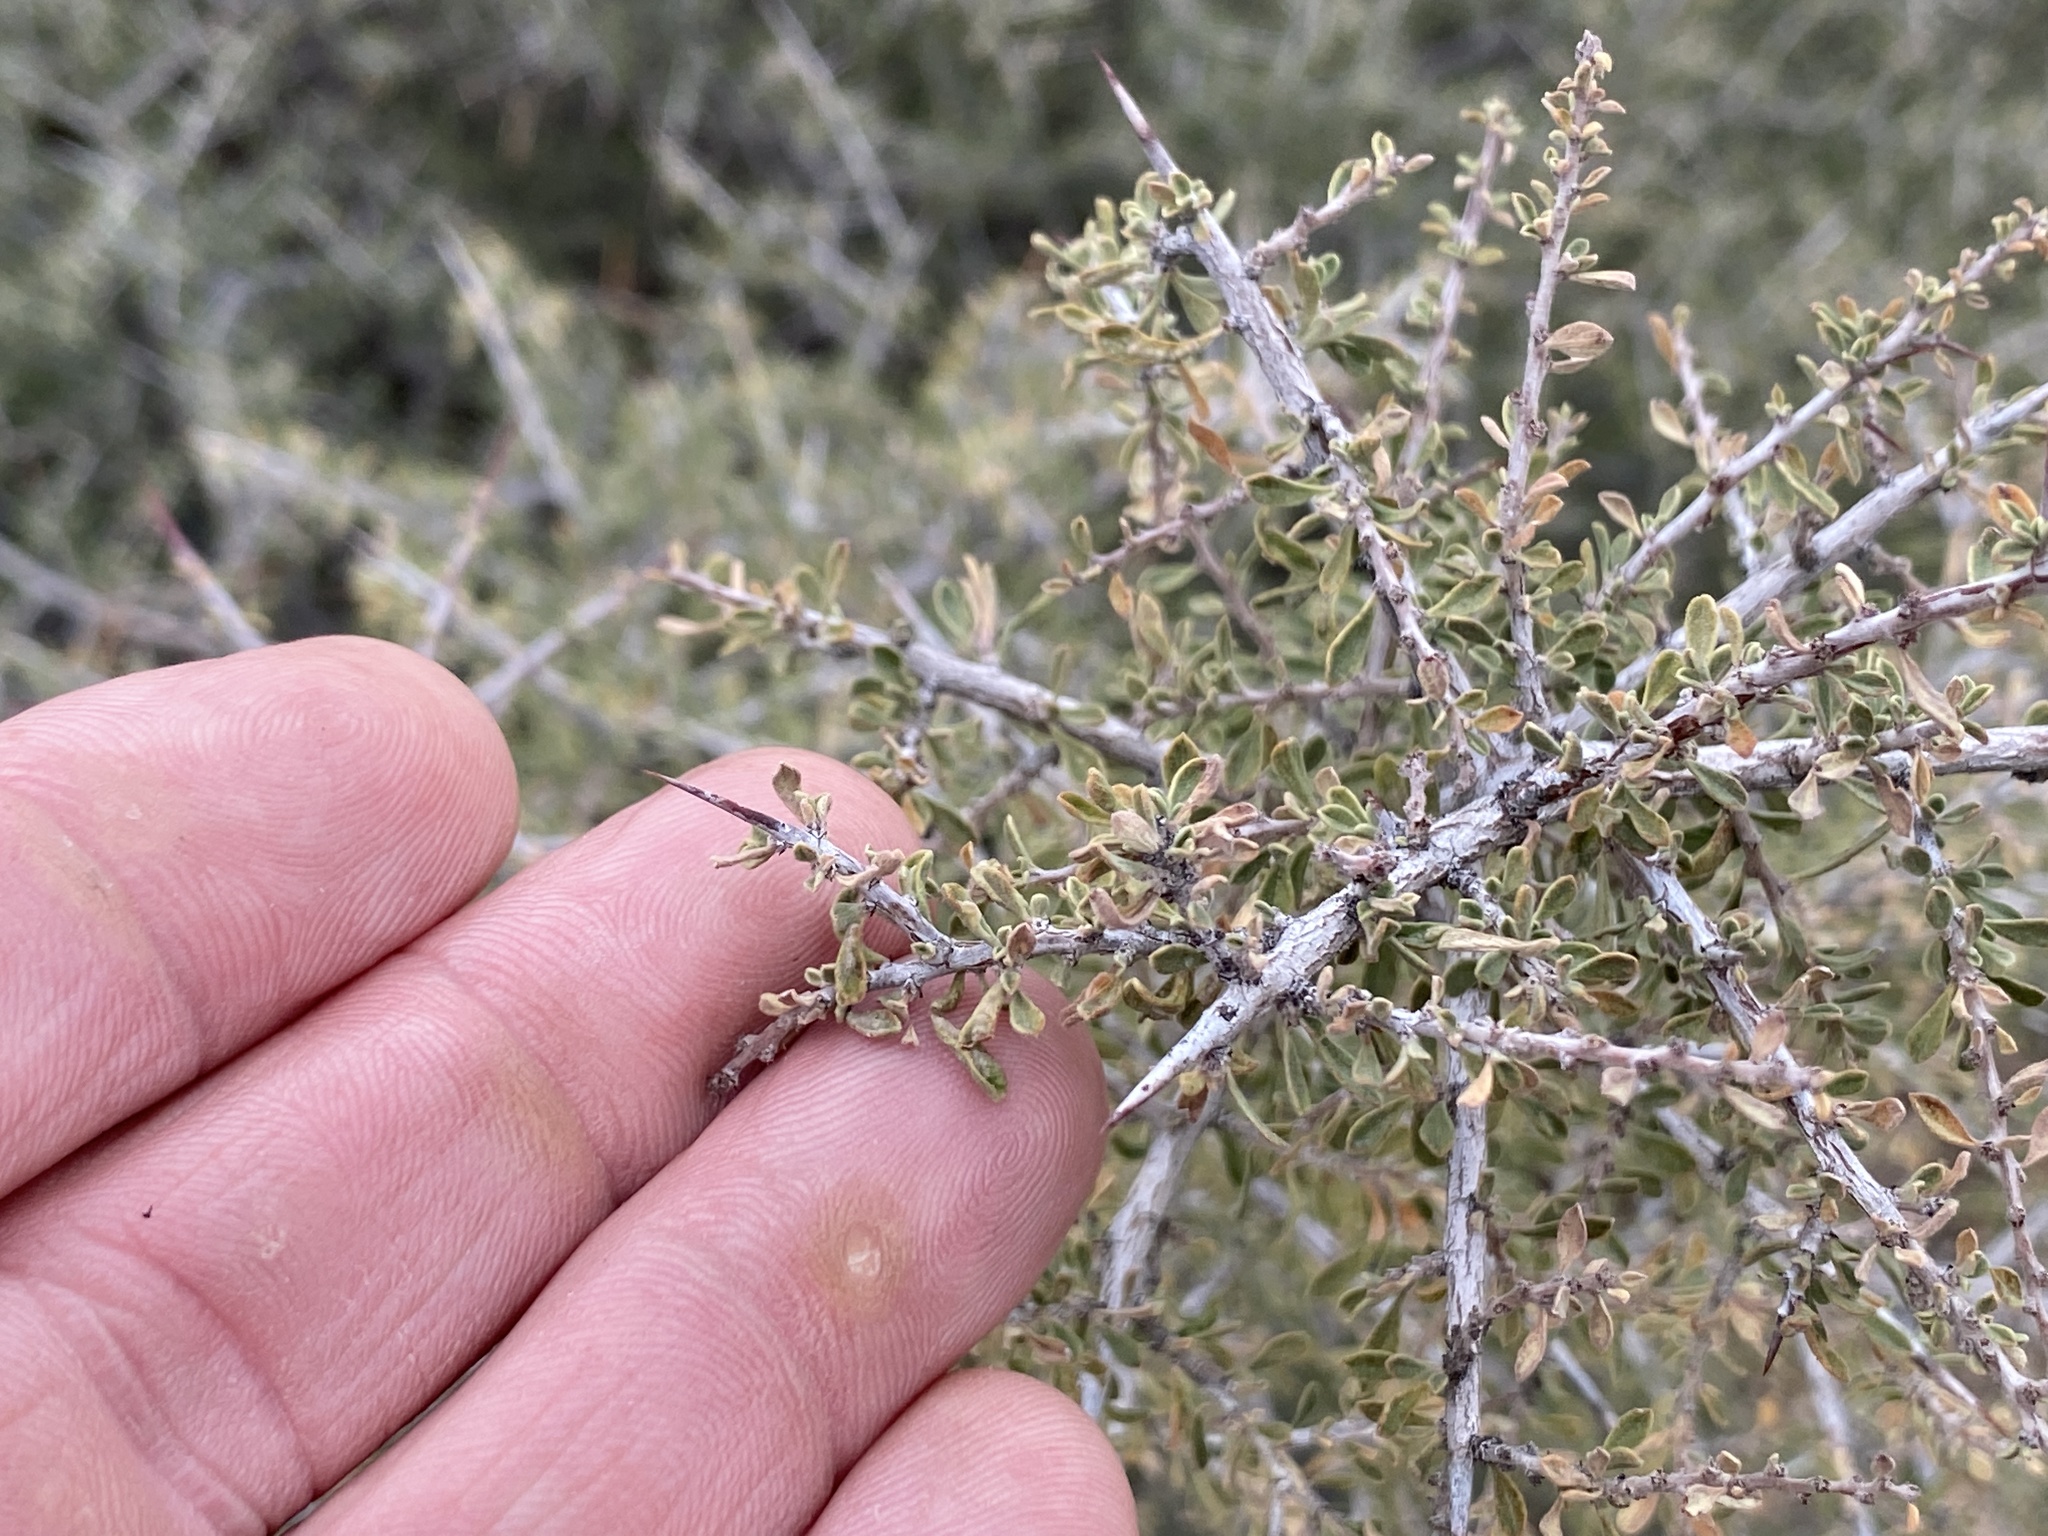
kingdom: Plantae
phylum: Tracheophyta
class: Magnoliopsida
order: Rosales
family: Rhamnaceae
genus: Condalia
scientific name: Condalia warnockii
